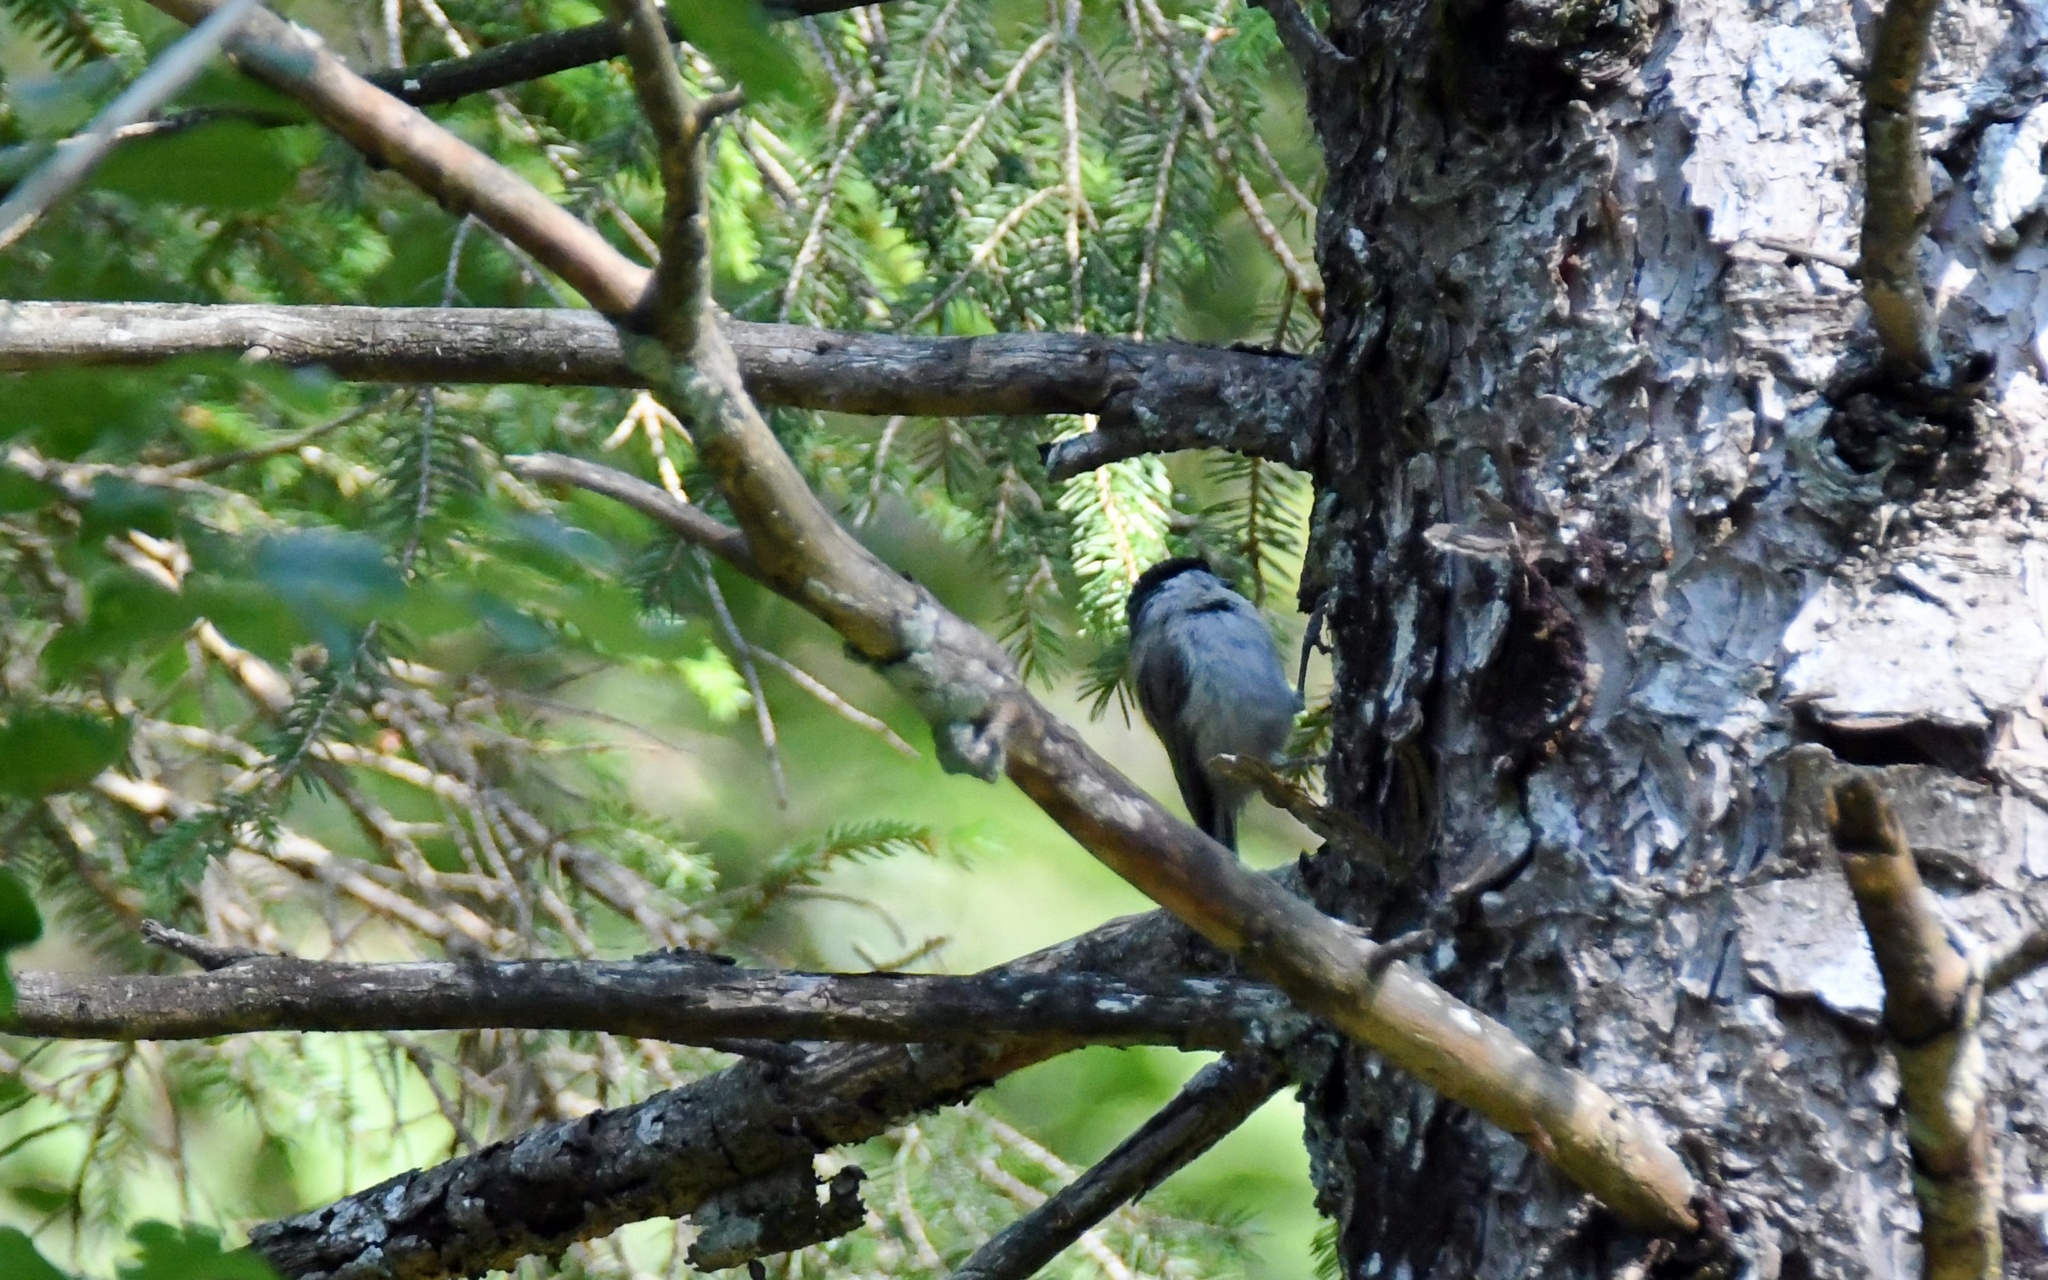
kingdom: Animalia
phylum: Chordata
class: Aves
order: Passeriformes
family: Paridae
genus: Poecile
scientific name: Poecile palustris
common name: Marsh tit
